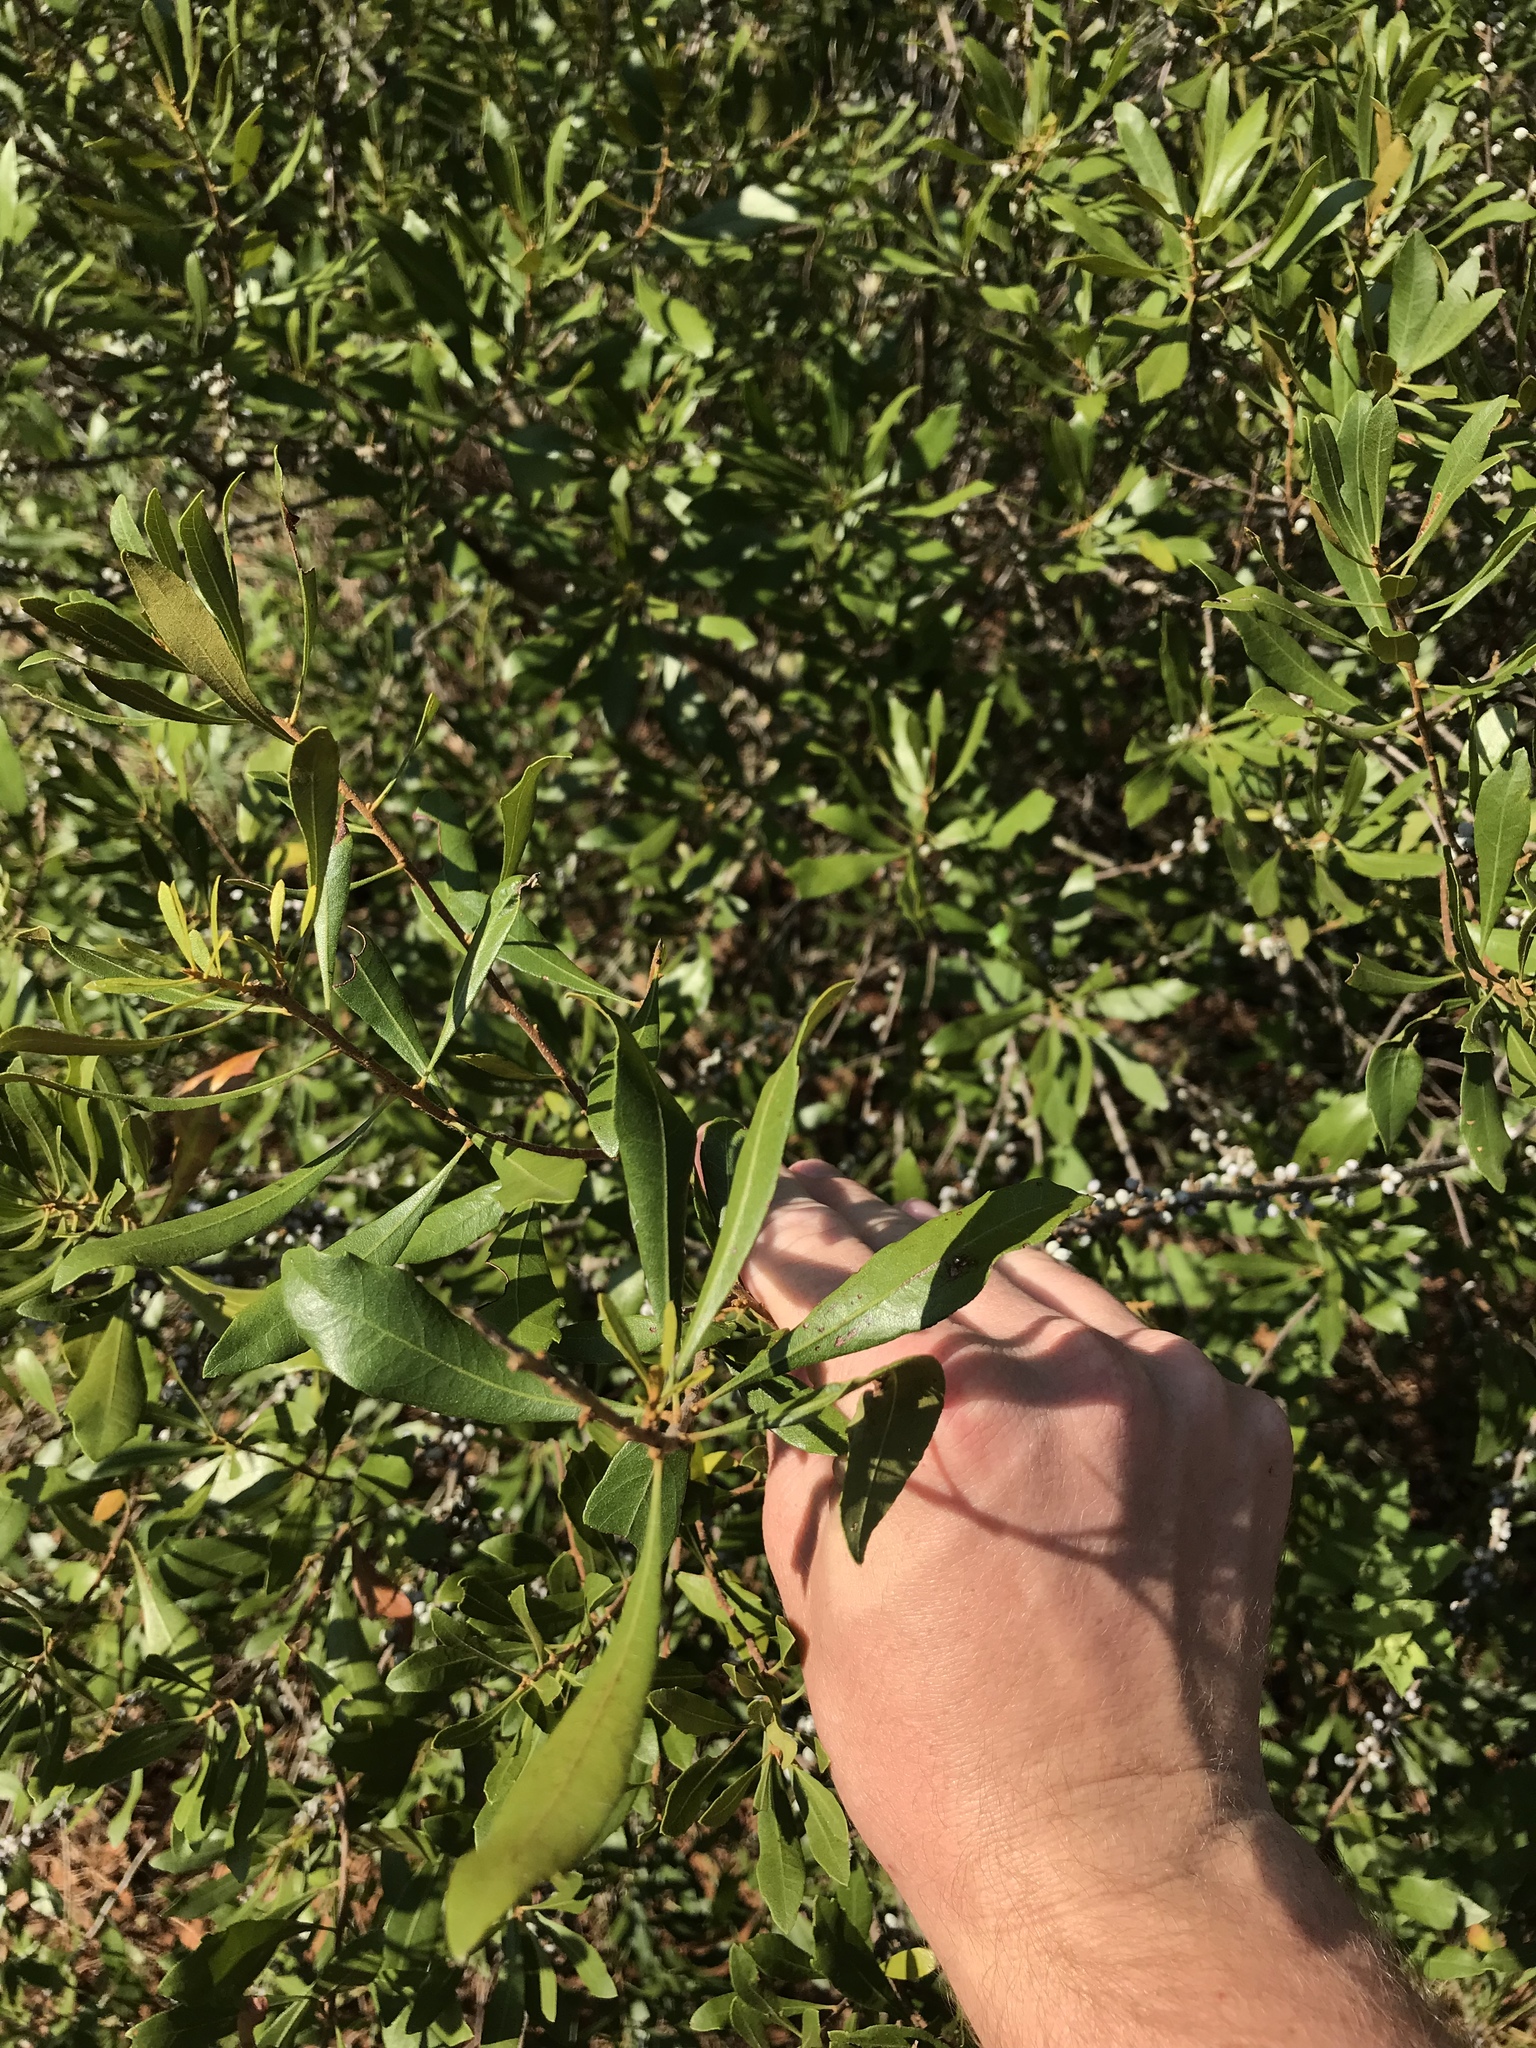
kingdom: Plantae
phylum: Tracheophyta
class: Magnoliopsida
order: Fagales
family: Myricaceae
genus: Morella
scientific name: Morella cerifera
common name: Wax myrtle
